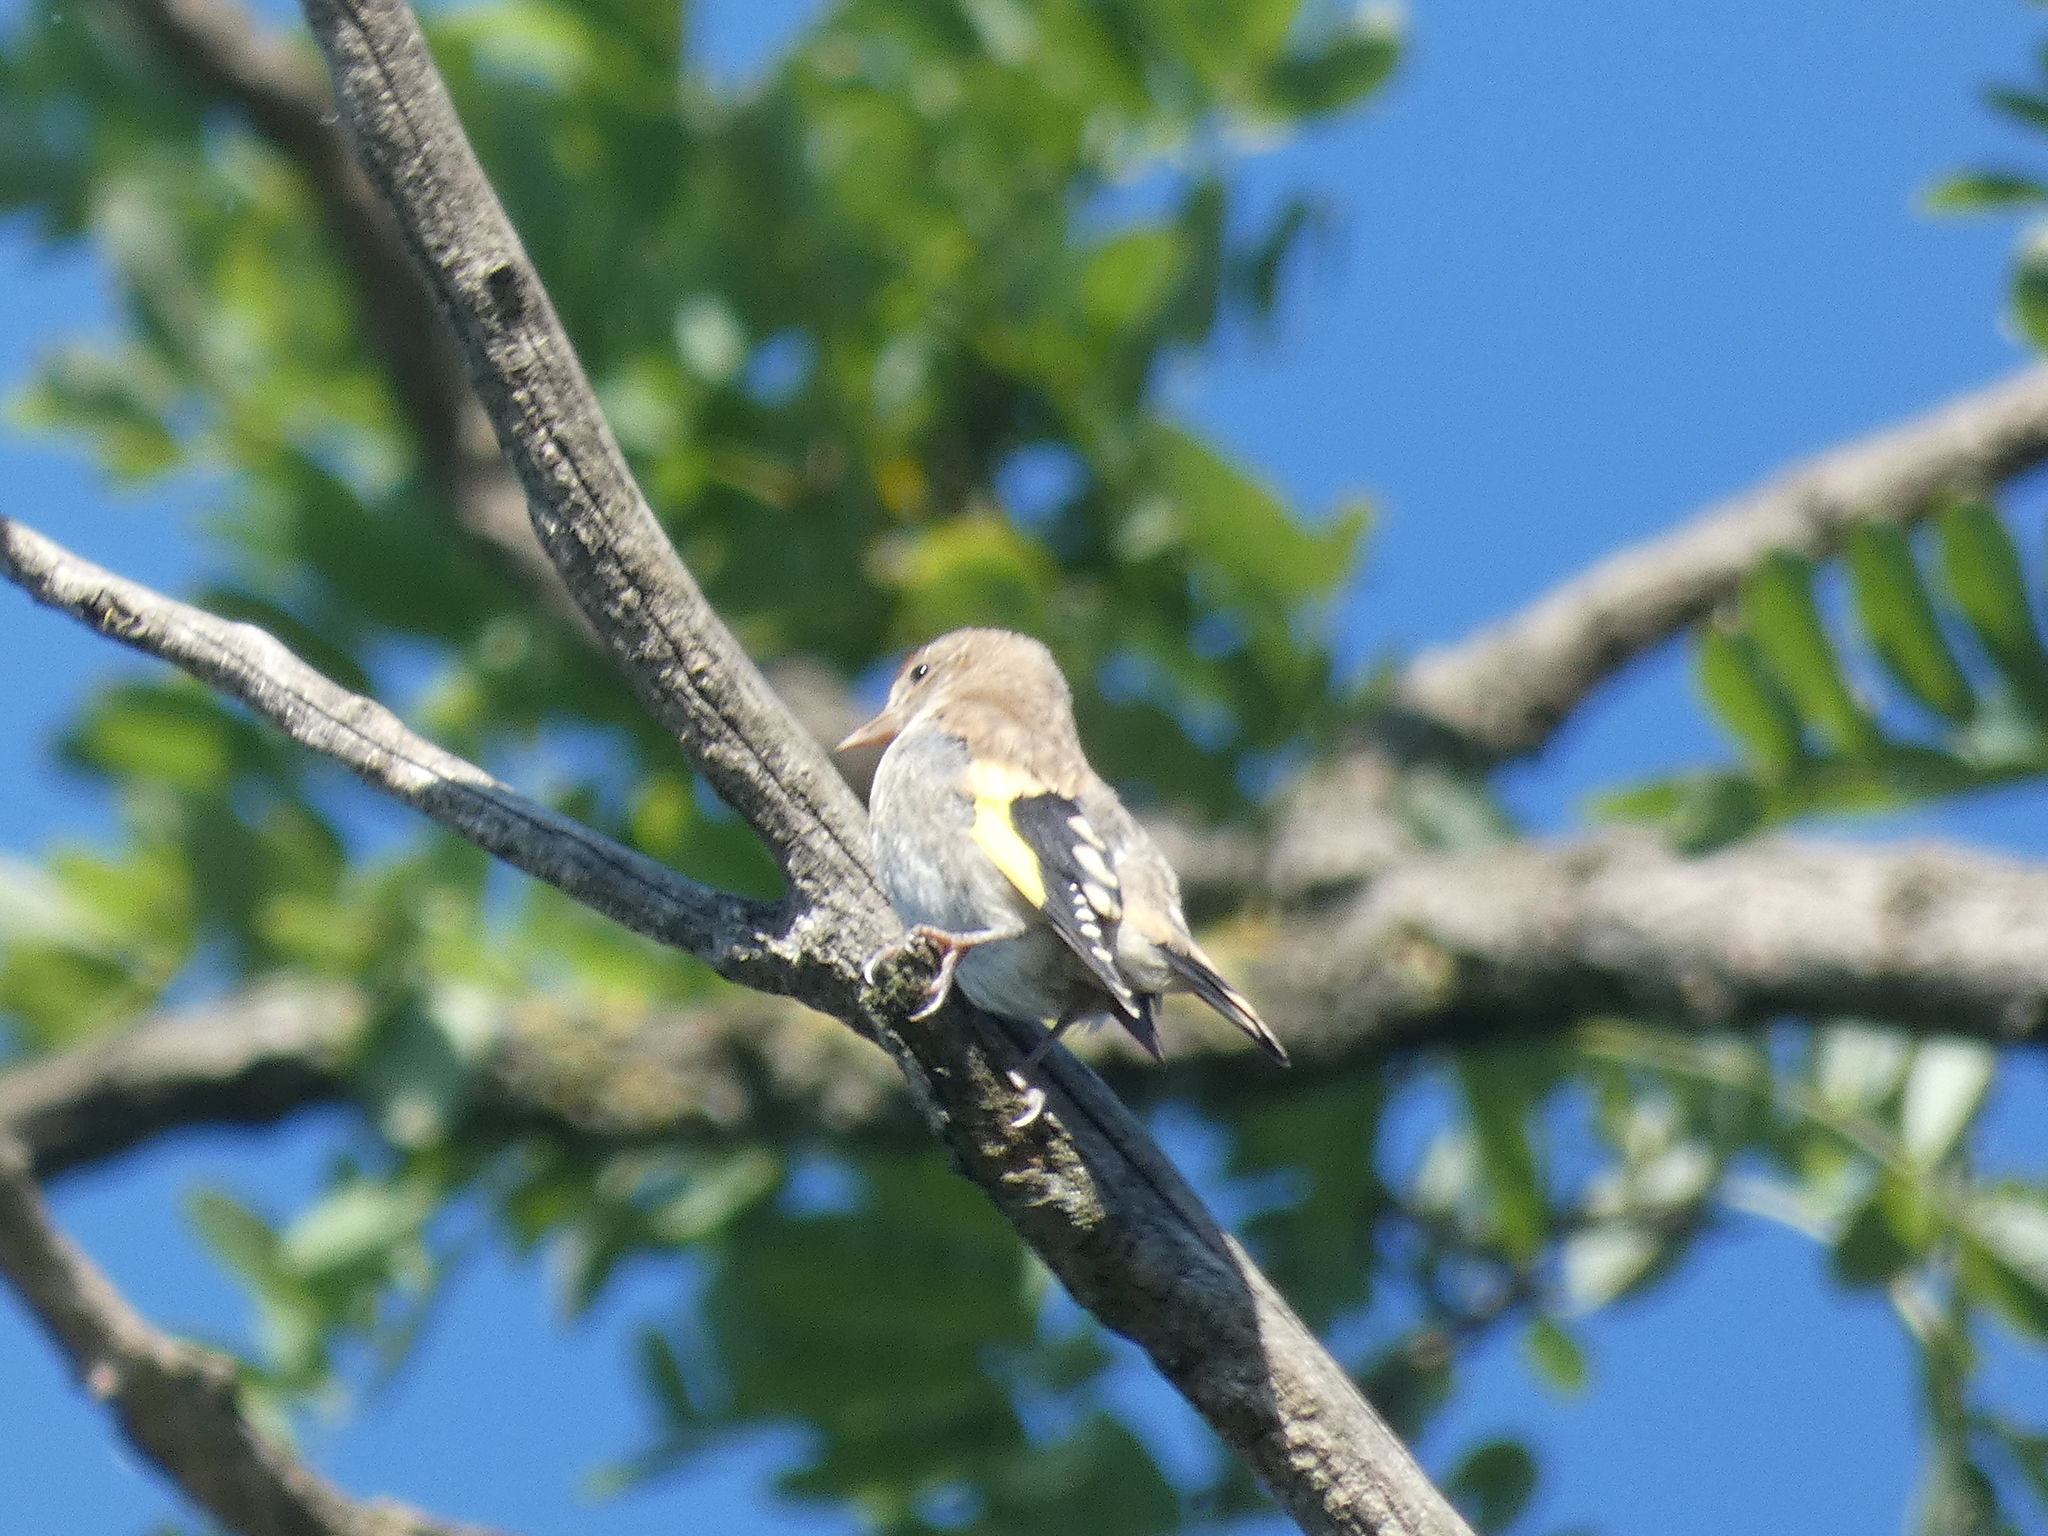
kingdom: Animalia
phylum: Chordata
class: Aves
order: Passeriformes
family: Fringillidae
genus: Carduelis
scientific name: Carduelis carduelis
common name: European goldfinch
